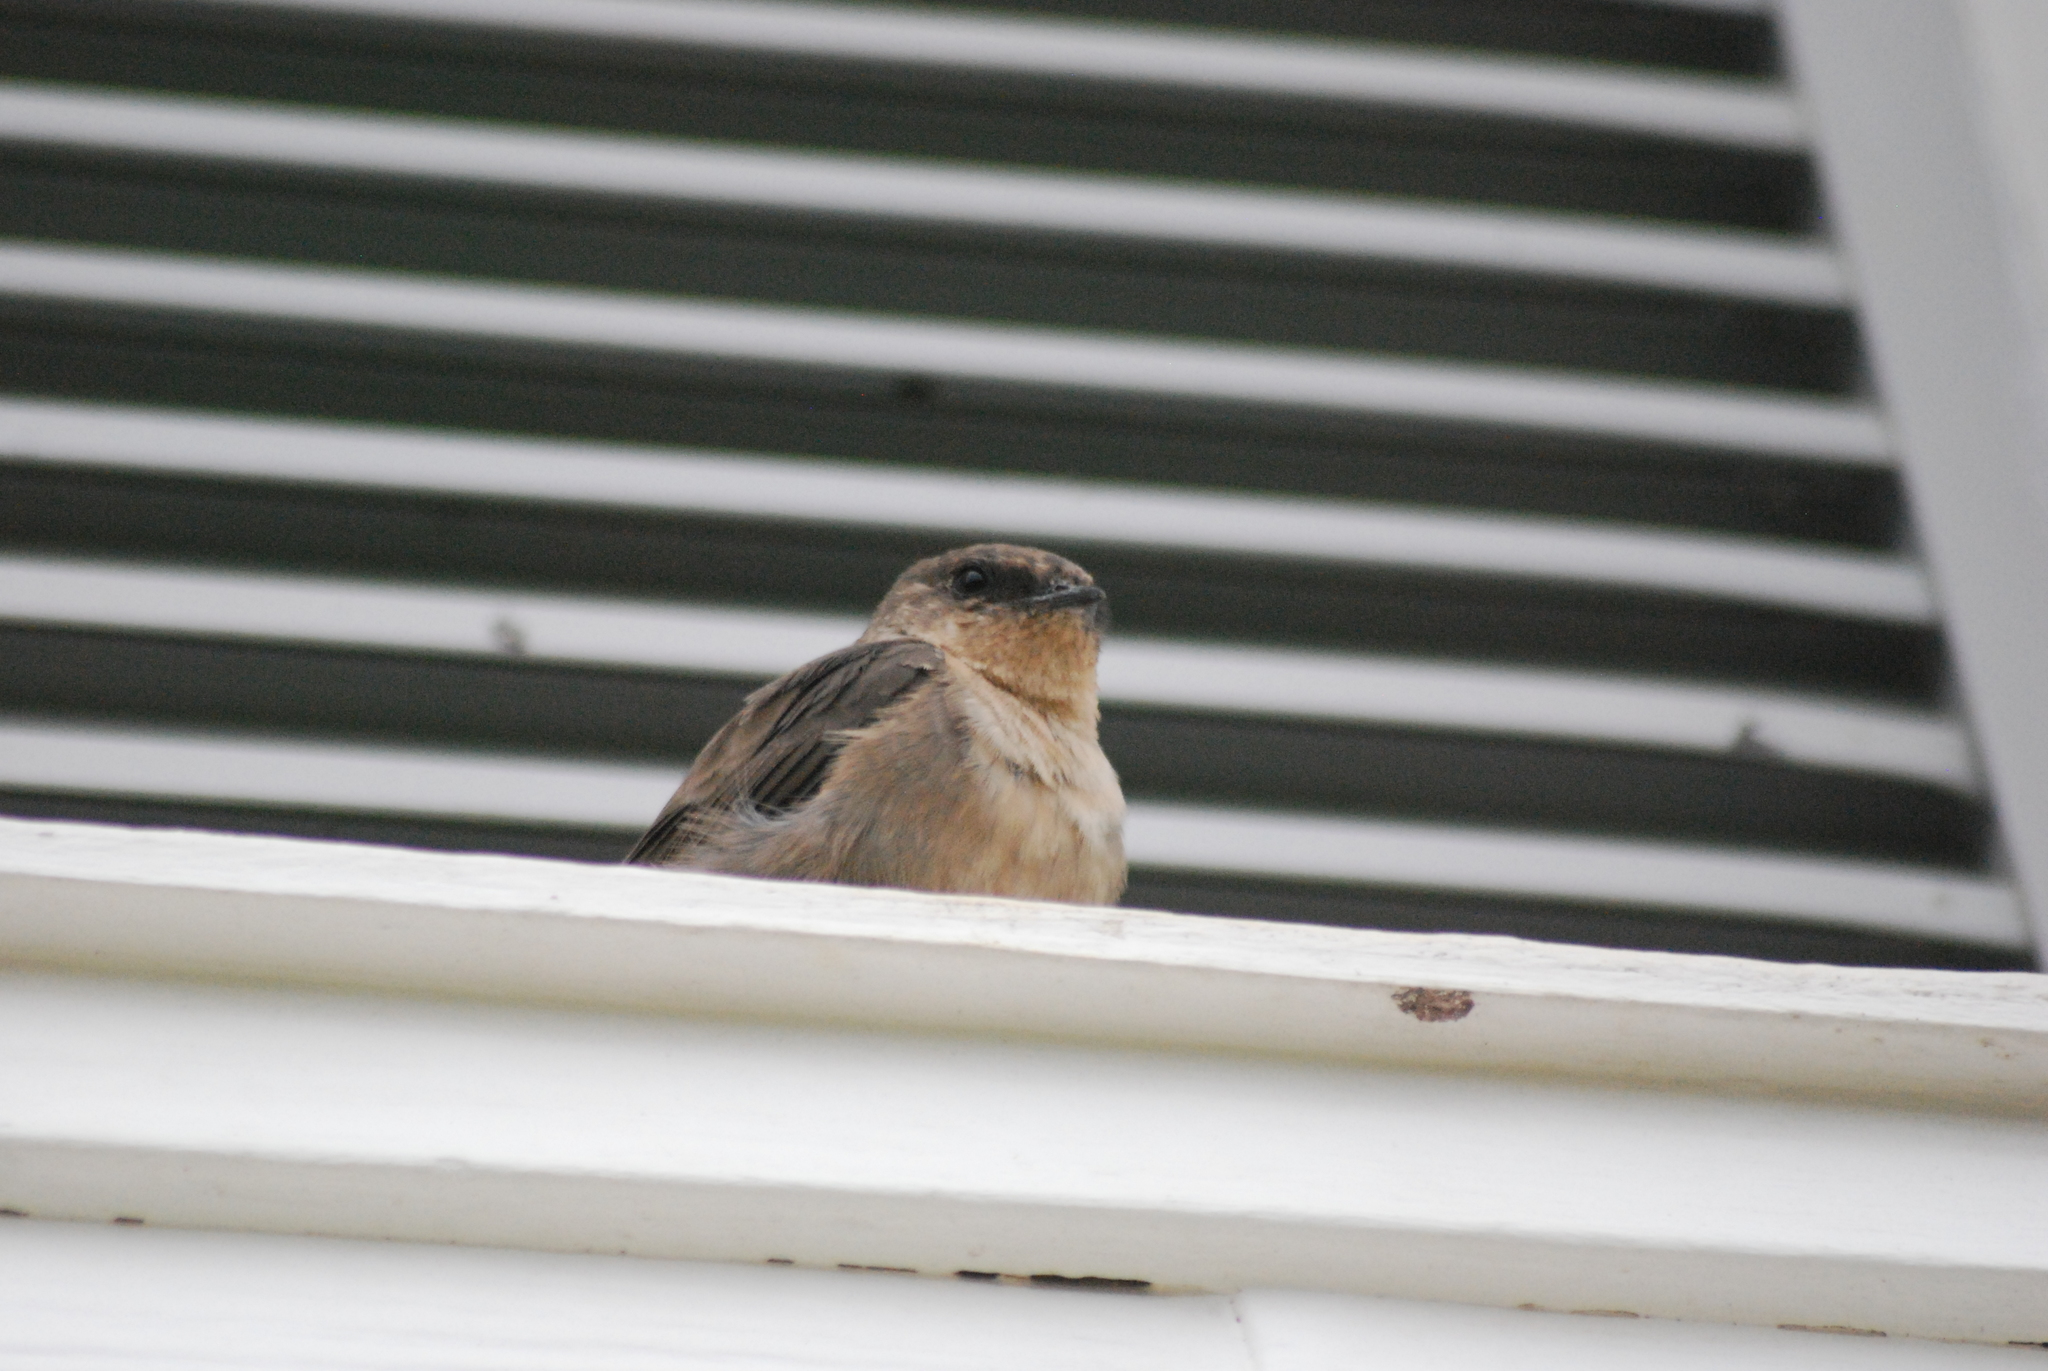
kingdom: Animalia
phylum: Chordata
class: Aves
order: Passeriformes
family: Hirundinidae
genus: Ptyonoprogne
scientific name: Ptyonoprogne fuligula
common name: Rock martin
